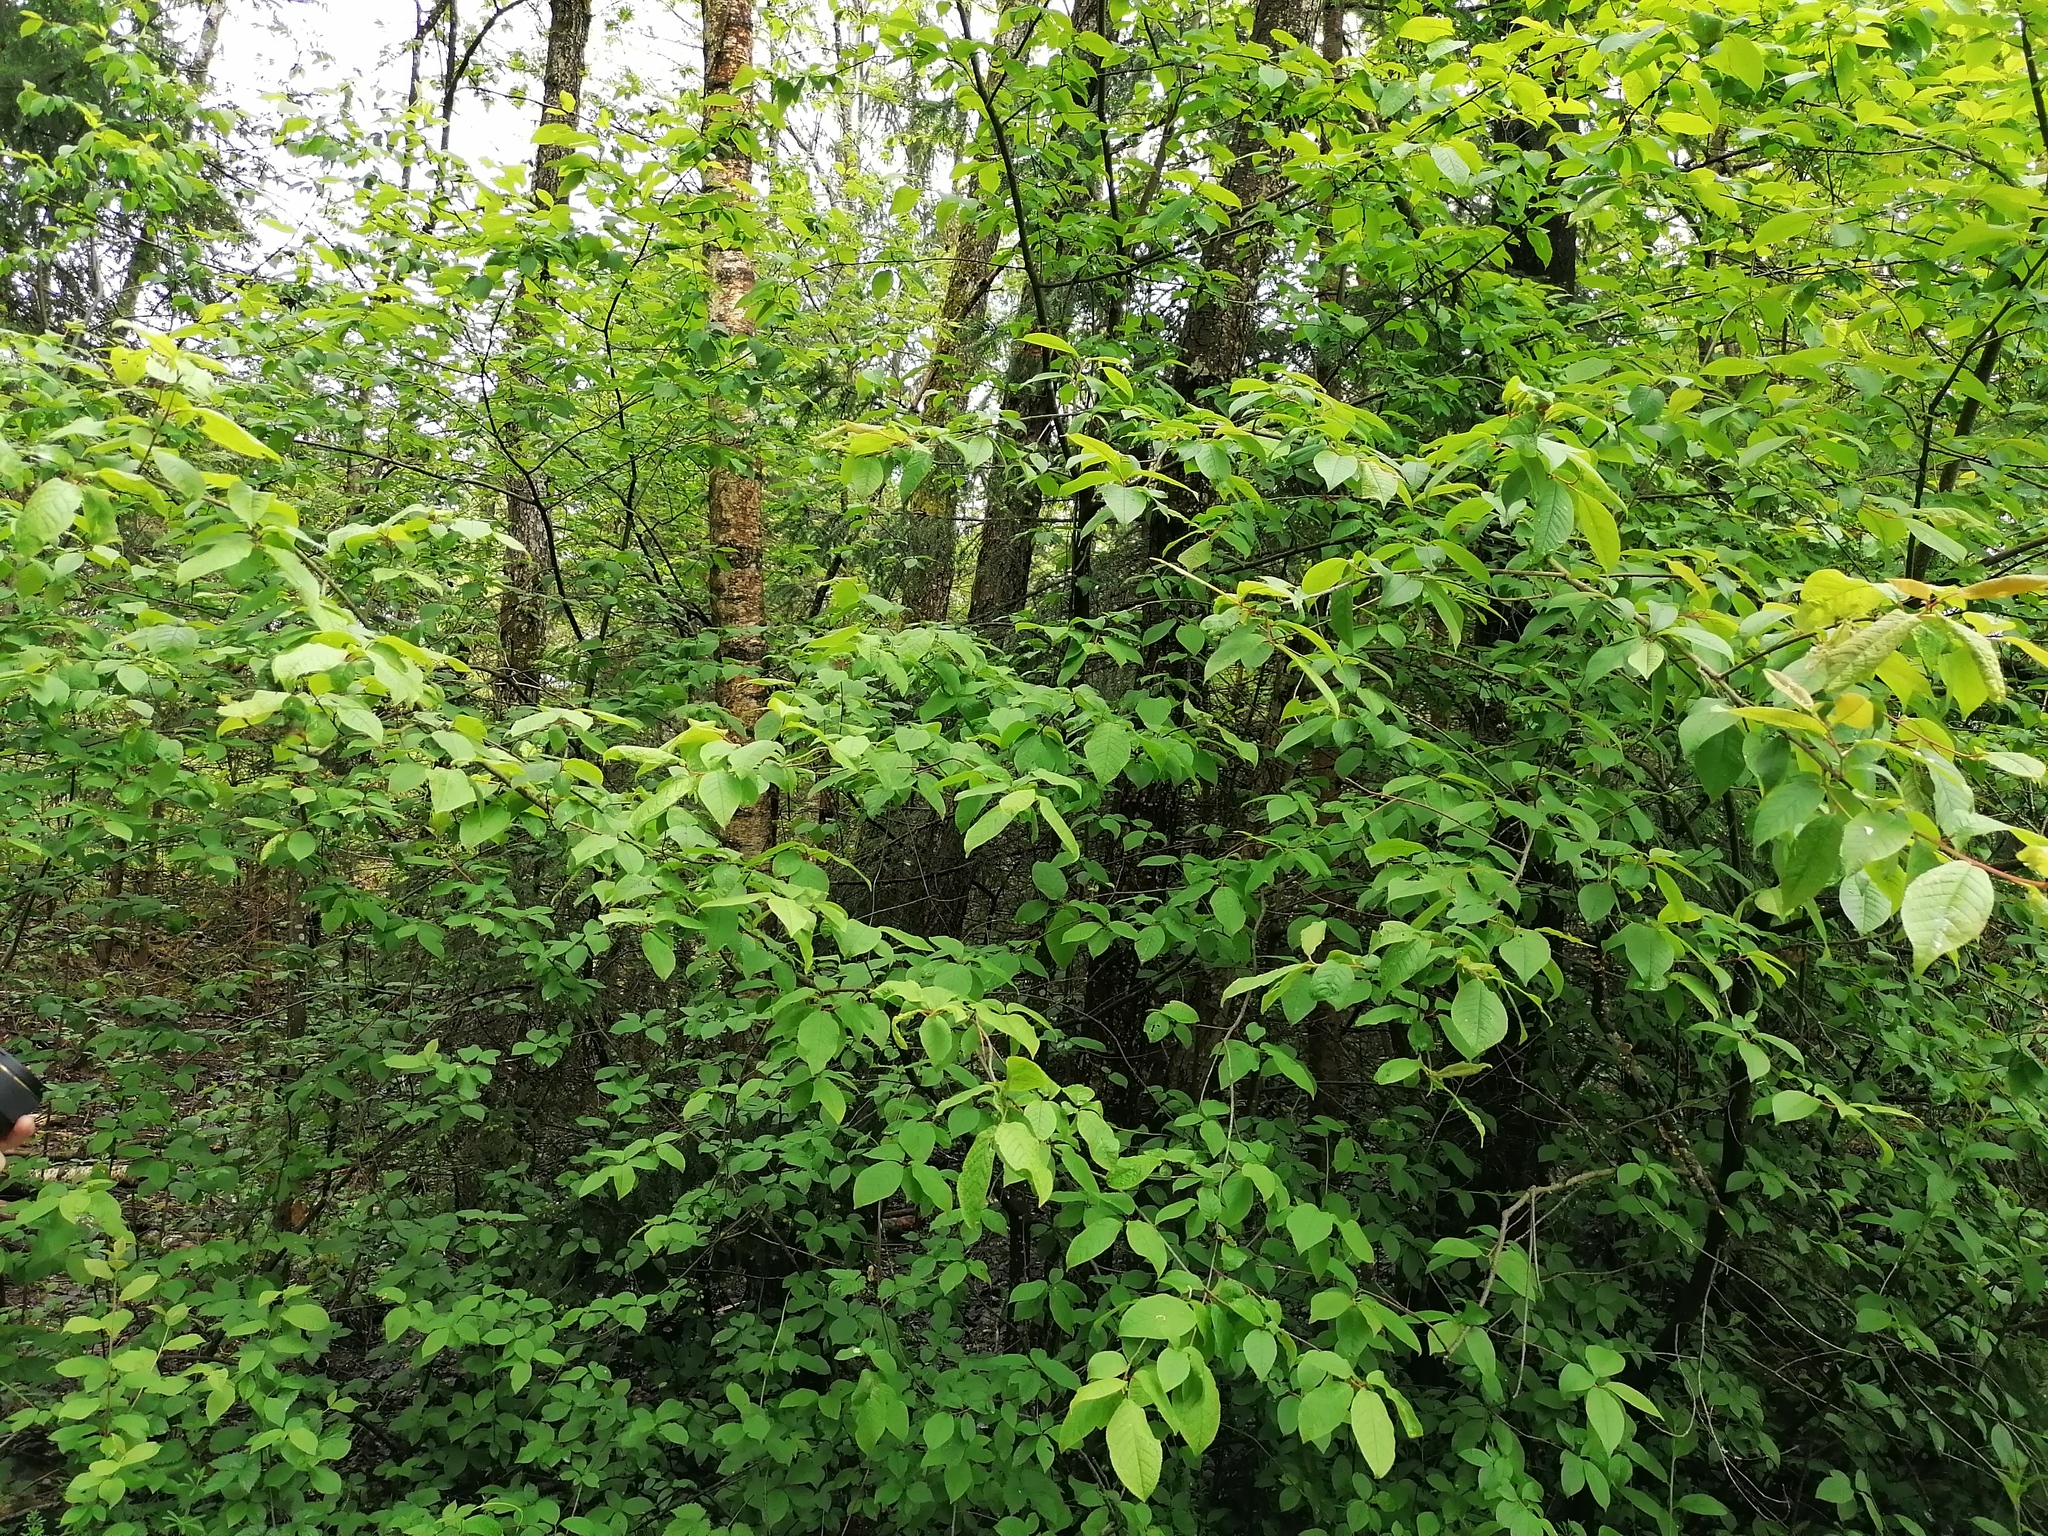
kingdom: Plantae
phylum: Tracheophyta
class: Magnoliopsida
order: Rosales
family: Rosaceae
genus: Prunus
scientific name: Prunus padus
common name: Bird cherry
